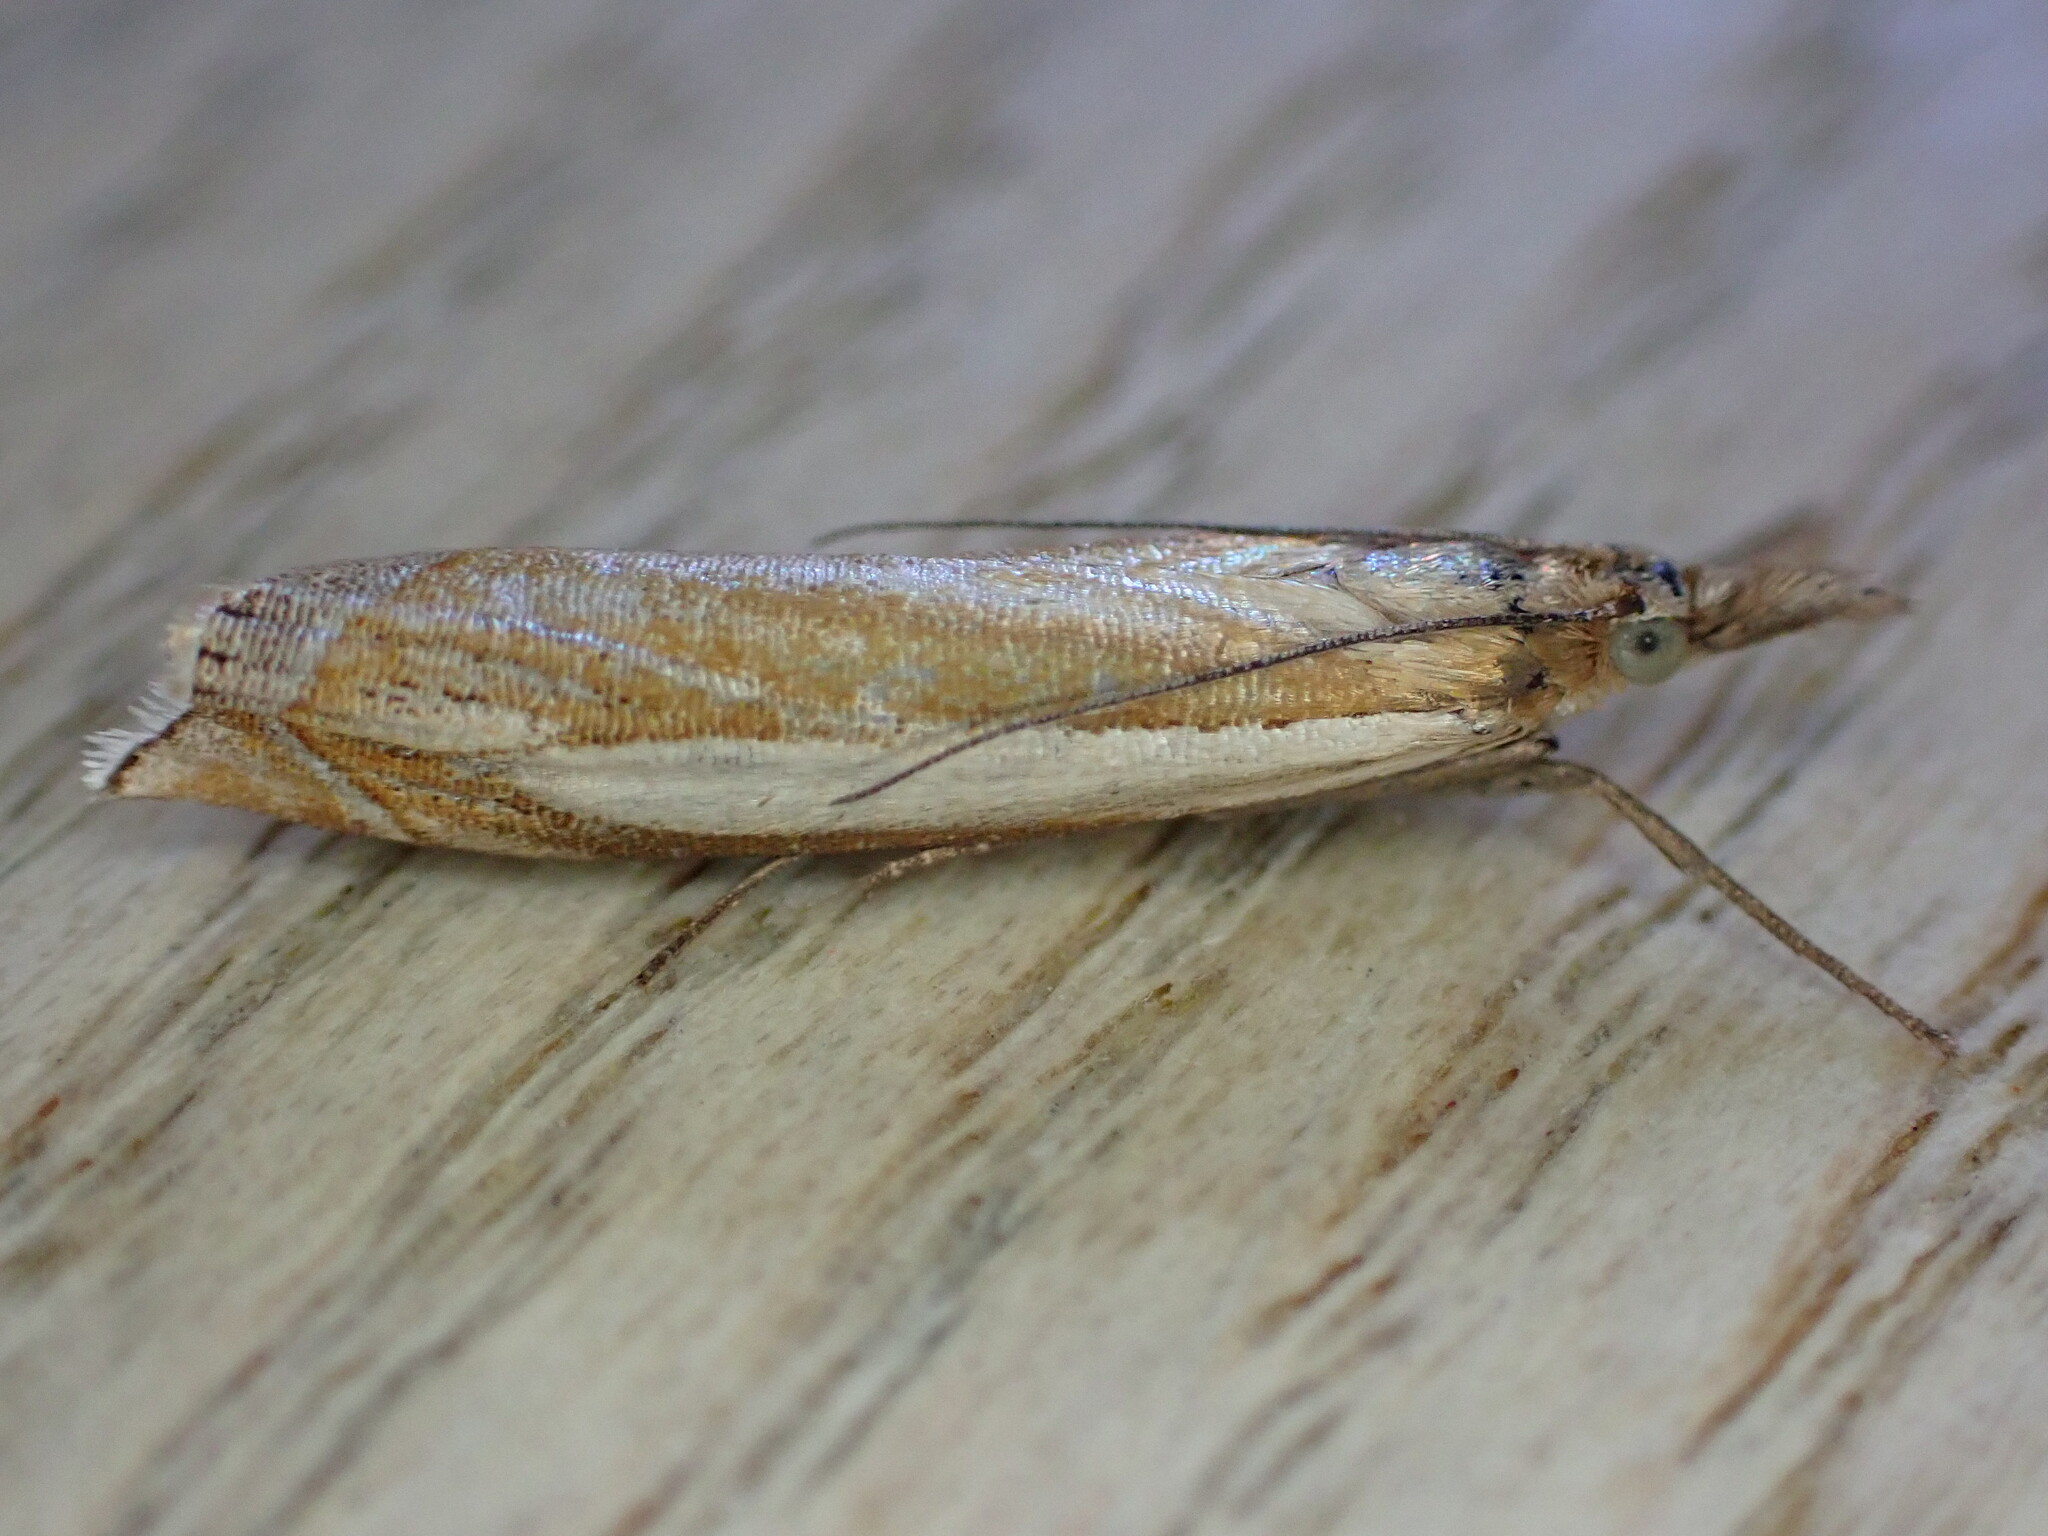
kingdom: Animalia
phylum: Arthropoda
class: Insecta
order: Lepidoptera
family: Crambidae
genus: Crambus
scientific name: Crambus pascuella
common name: Inlaid grass-veneer
